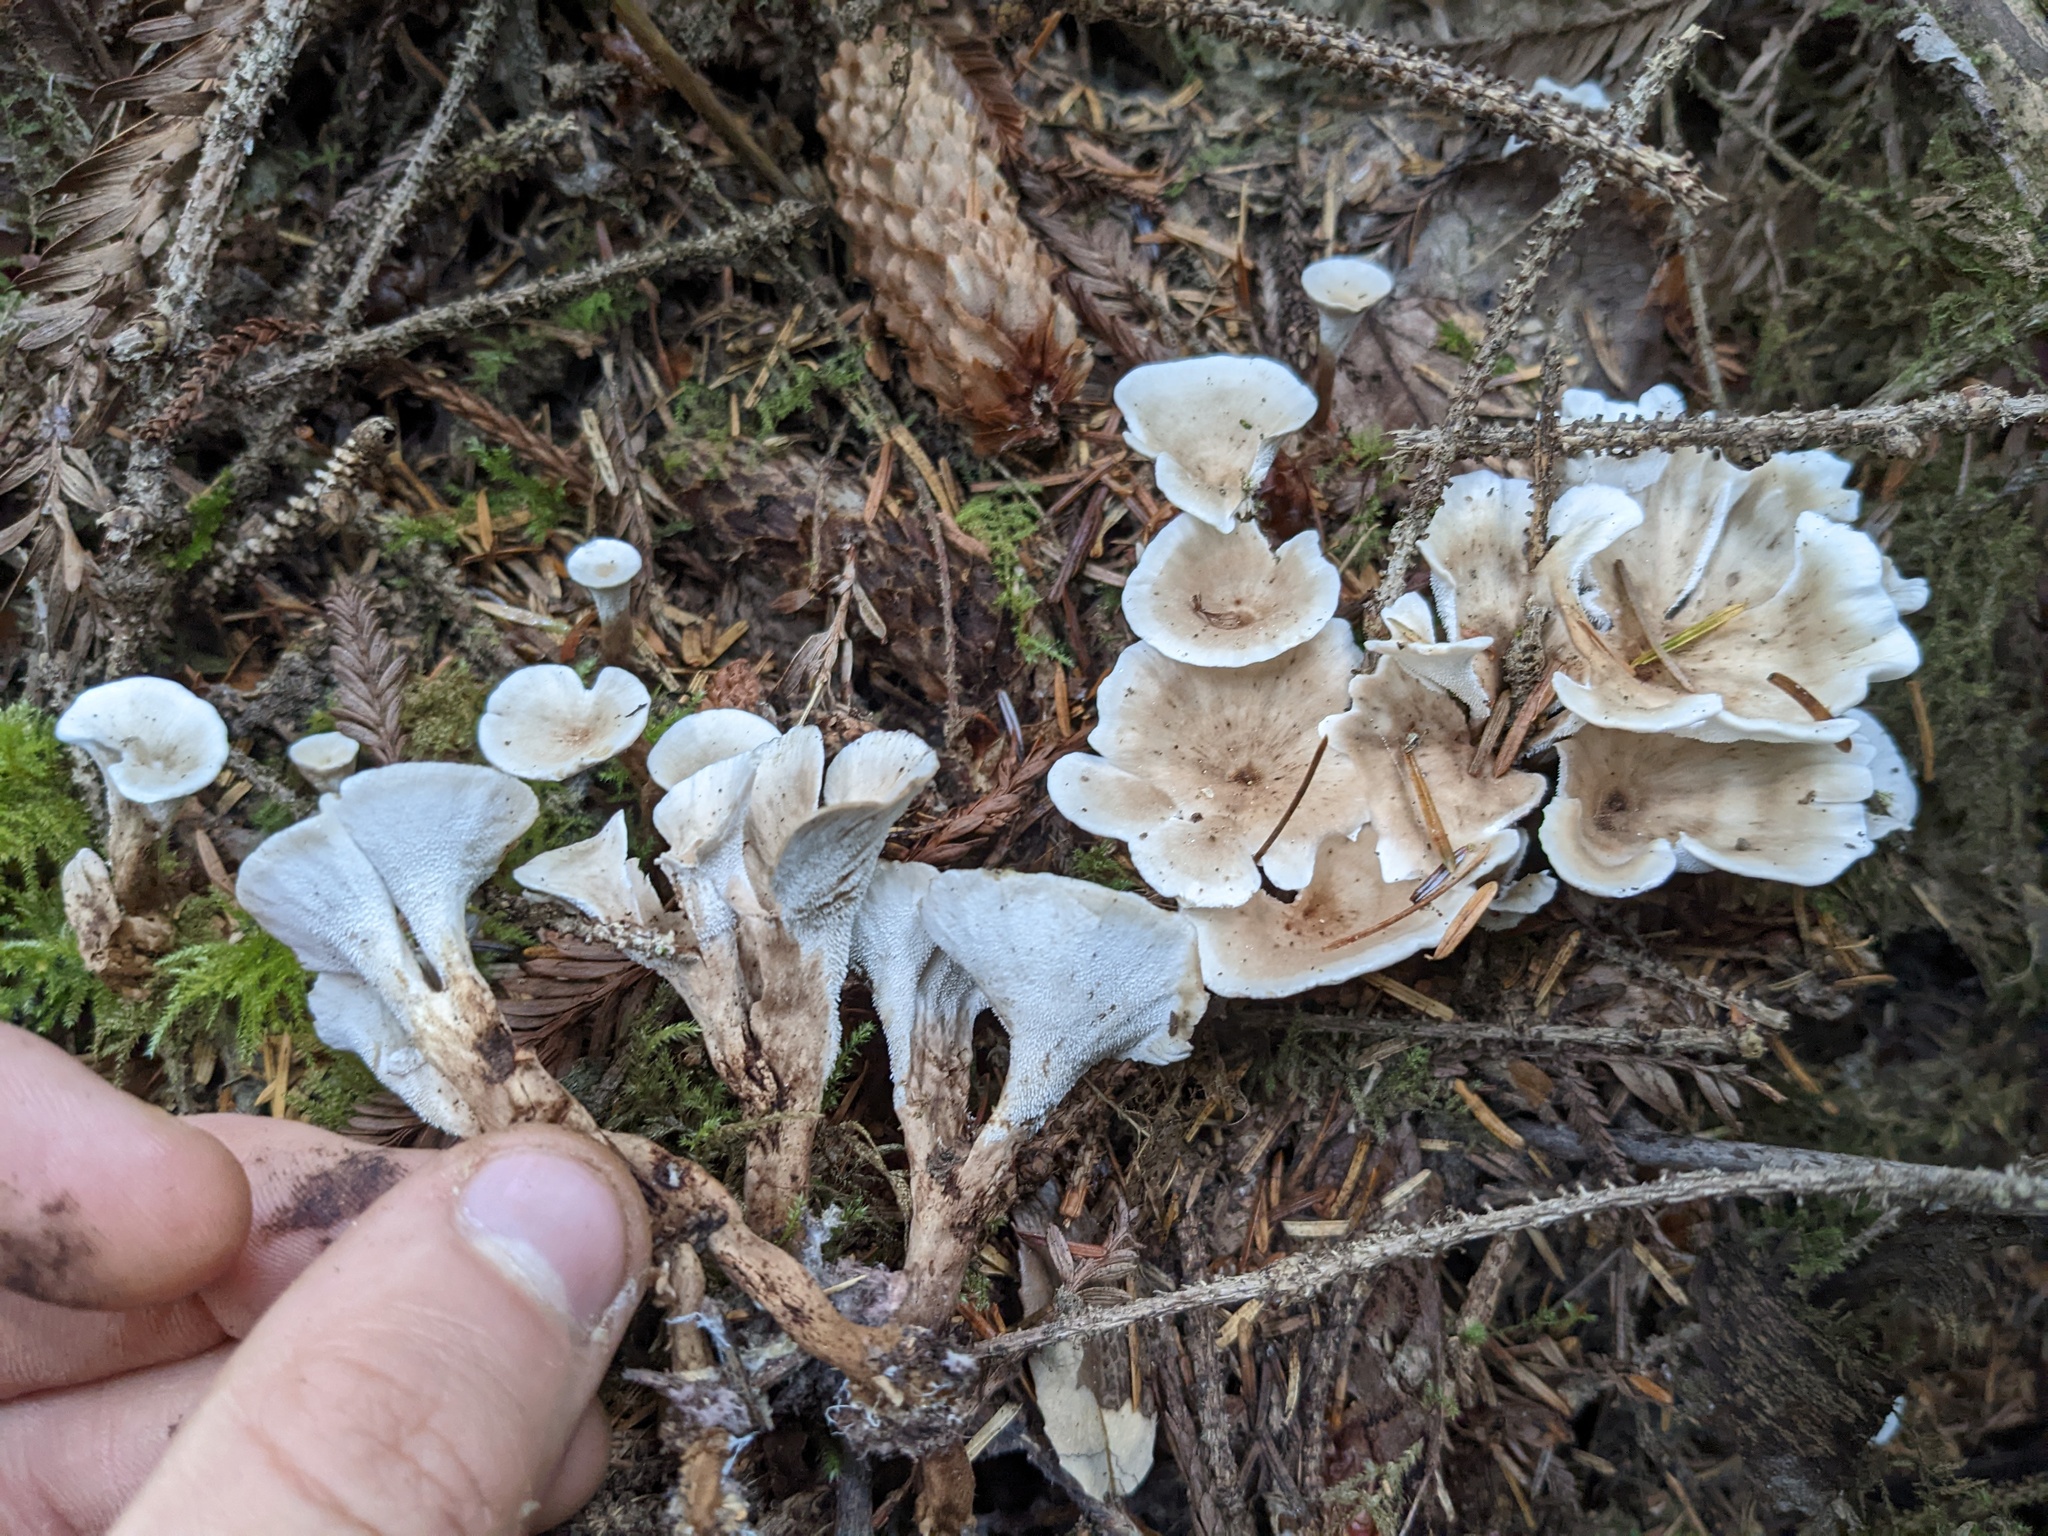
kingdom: Fungi
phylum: Basidiomycota
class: Agaricomycetes
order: Thelephorales
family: Thelephoraceae
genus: Phellodon
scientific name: Phellodon tomentosus
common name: Woolly tooth
